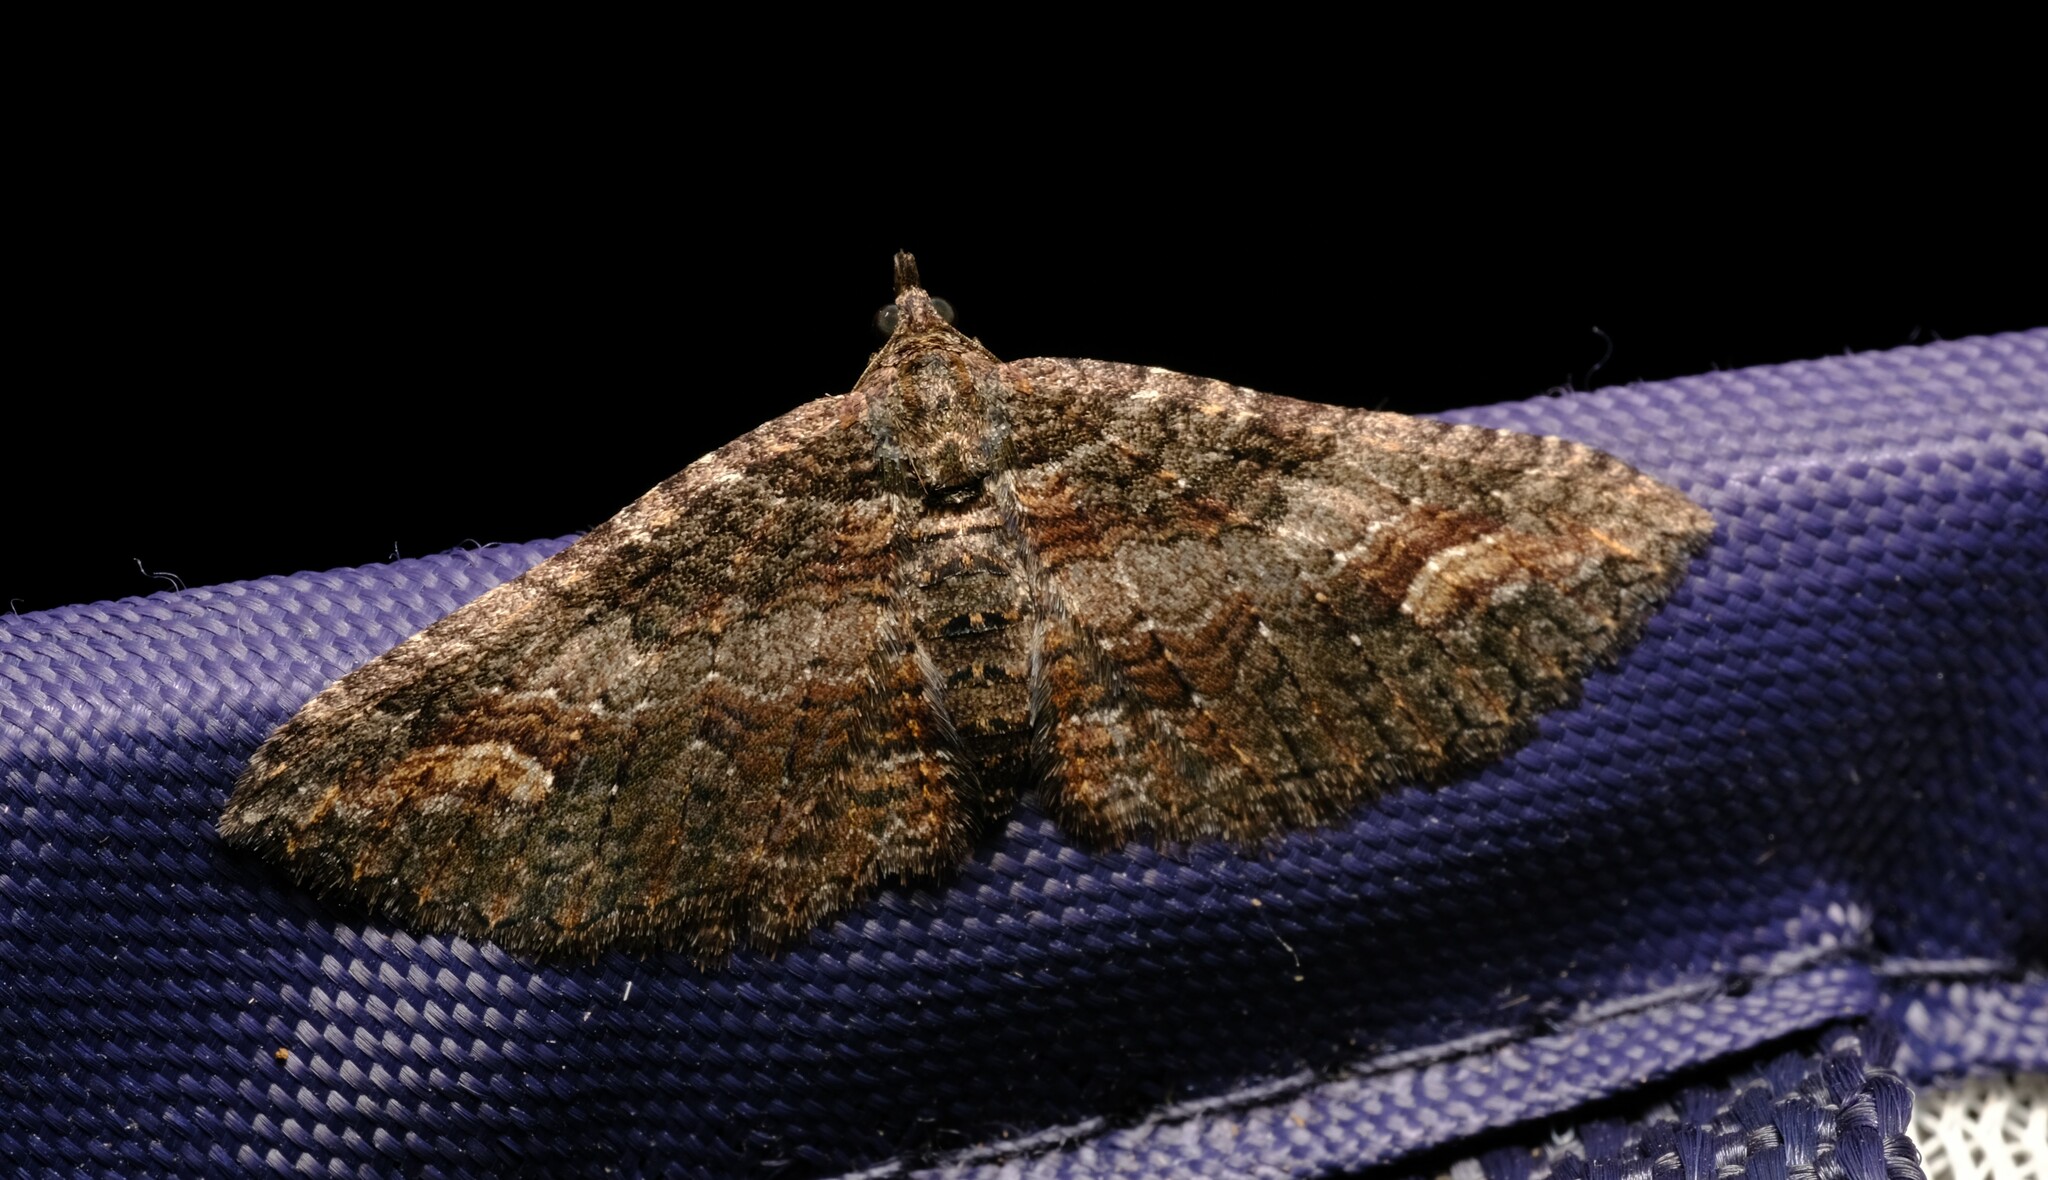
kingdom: Animalia
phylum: Arthropoda
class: Insecta
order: Lepidoptera
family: Geometridae
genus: Eupithecia
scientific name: Eupithecia Eucymatoge scotodes
